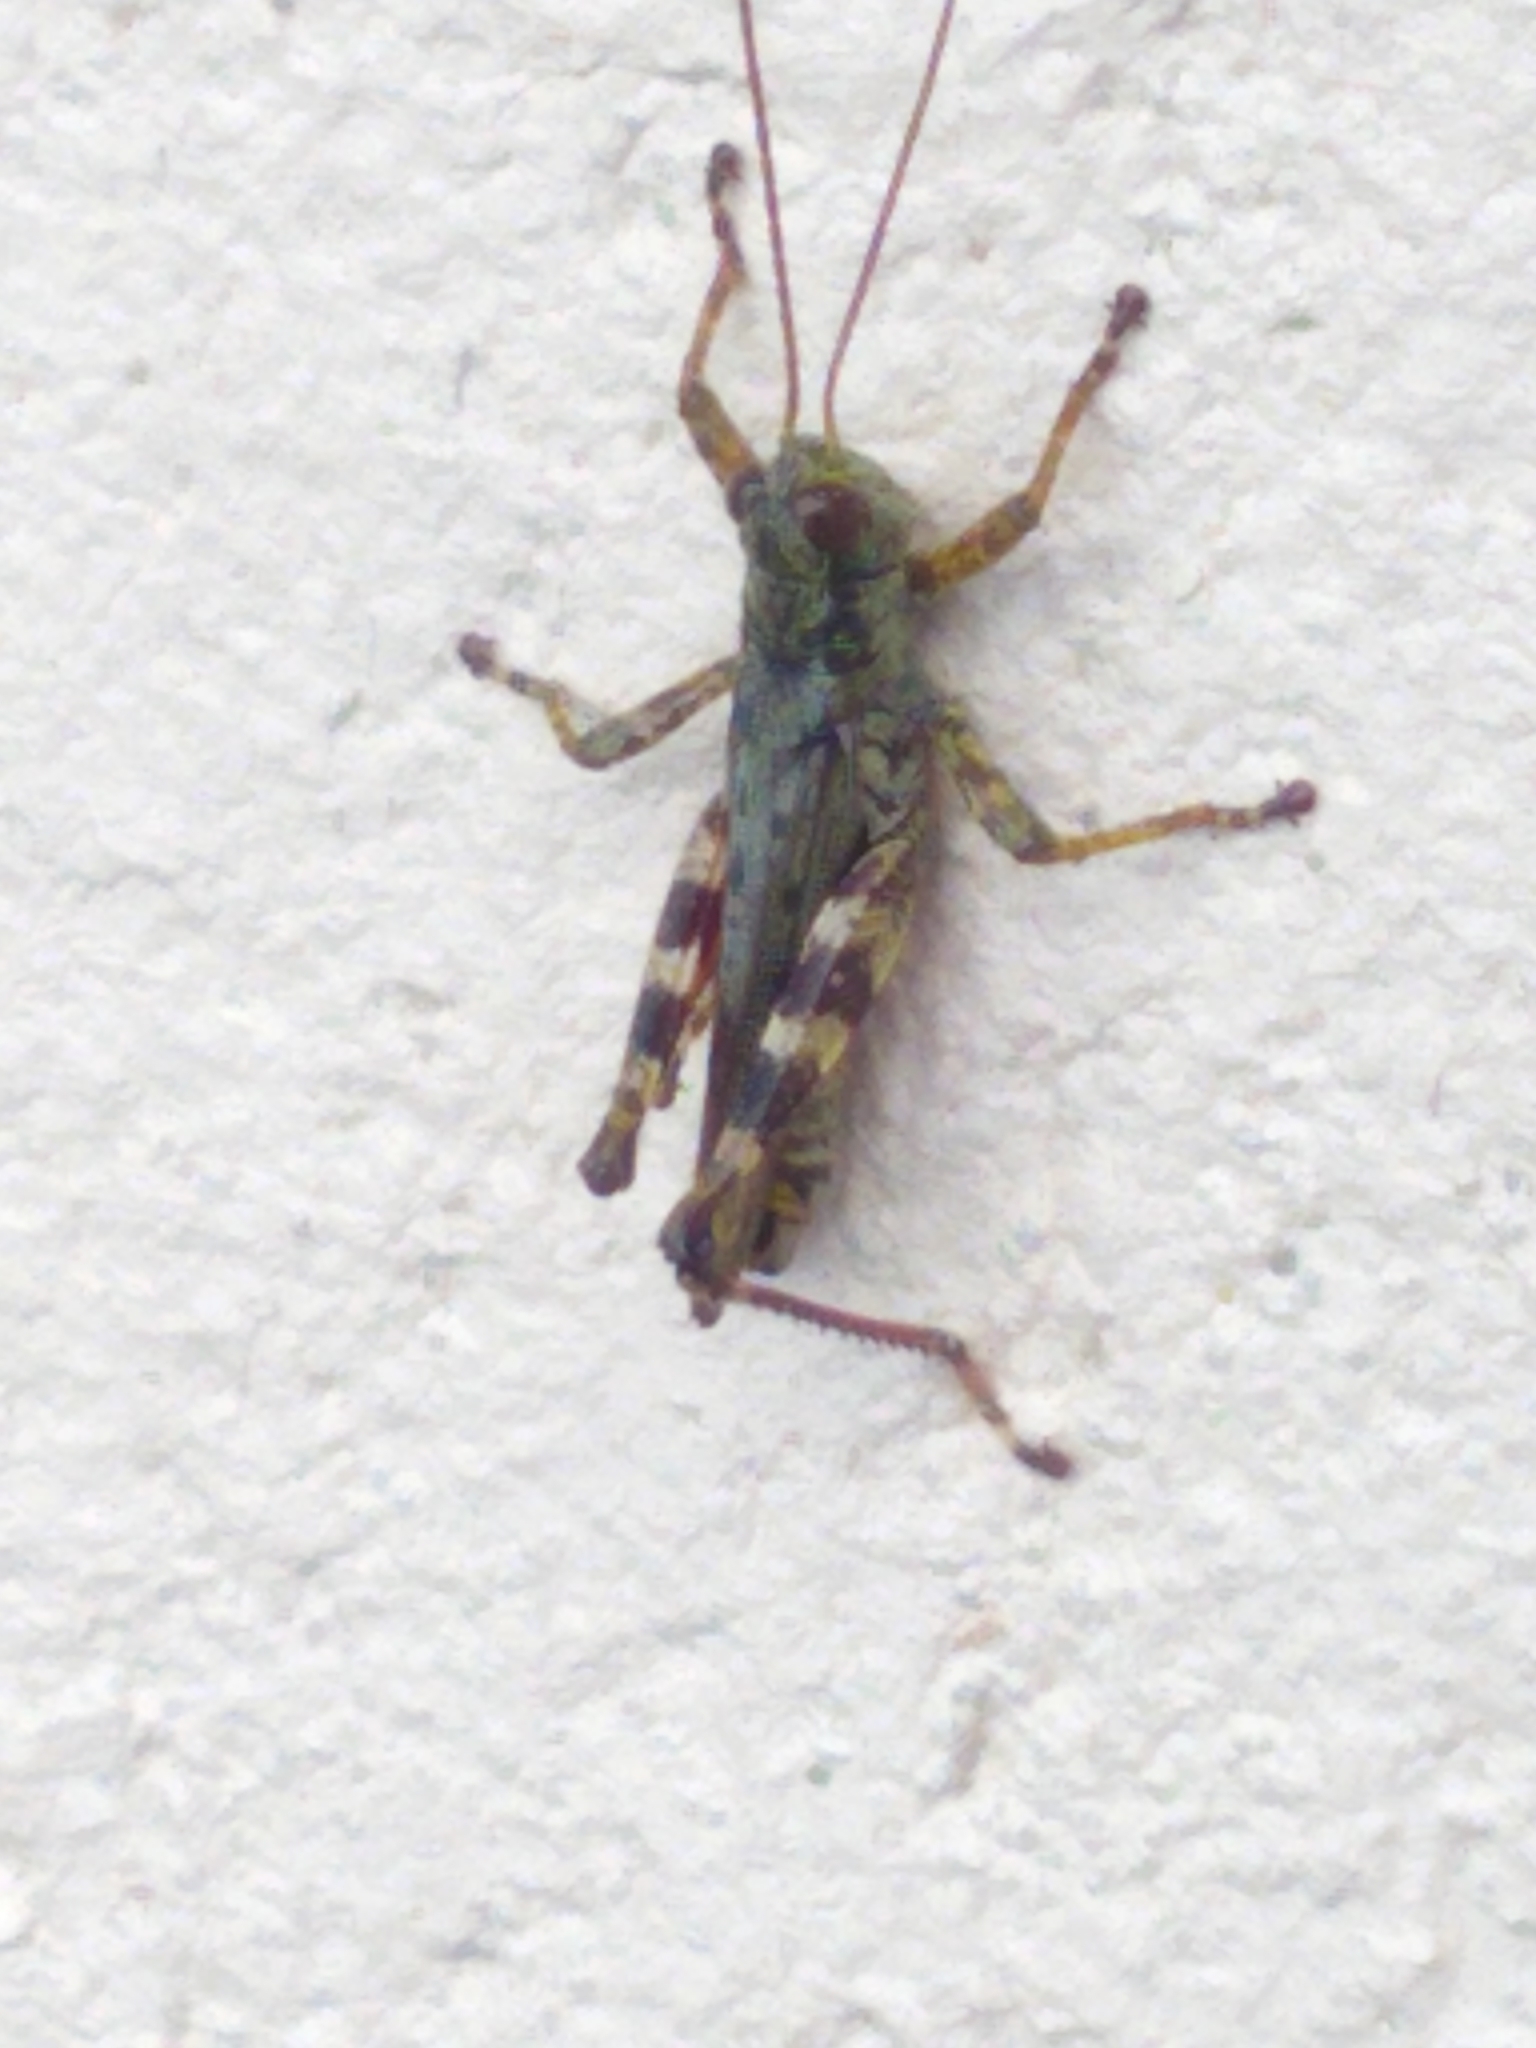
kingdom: Animalia
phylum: Arthropoda
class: Insecta
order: Orthoptera
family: Acrididae
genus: Melanoplus
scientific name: Melanoplus punctulatus
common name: Pine-tree spur-throat grasshopper
